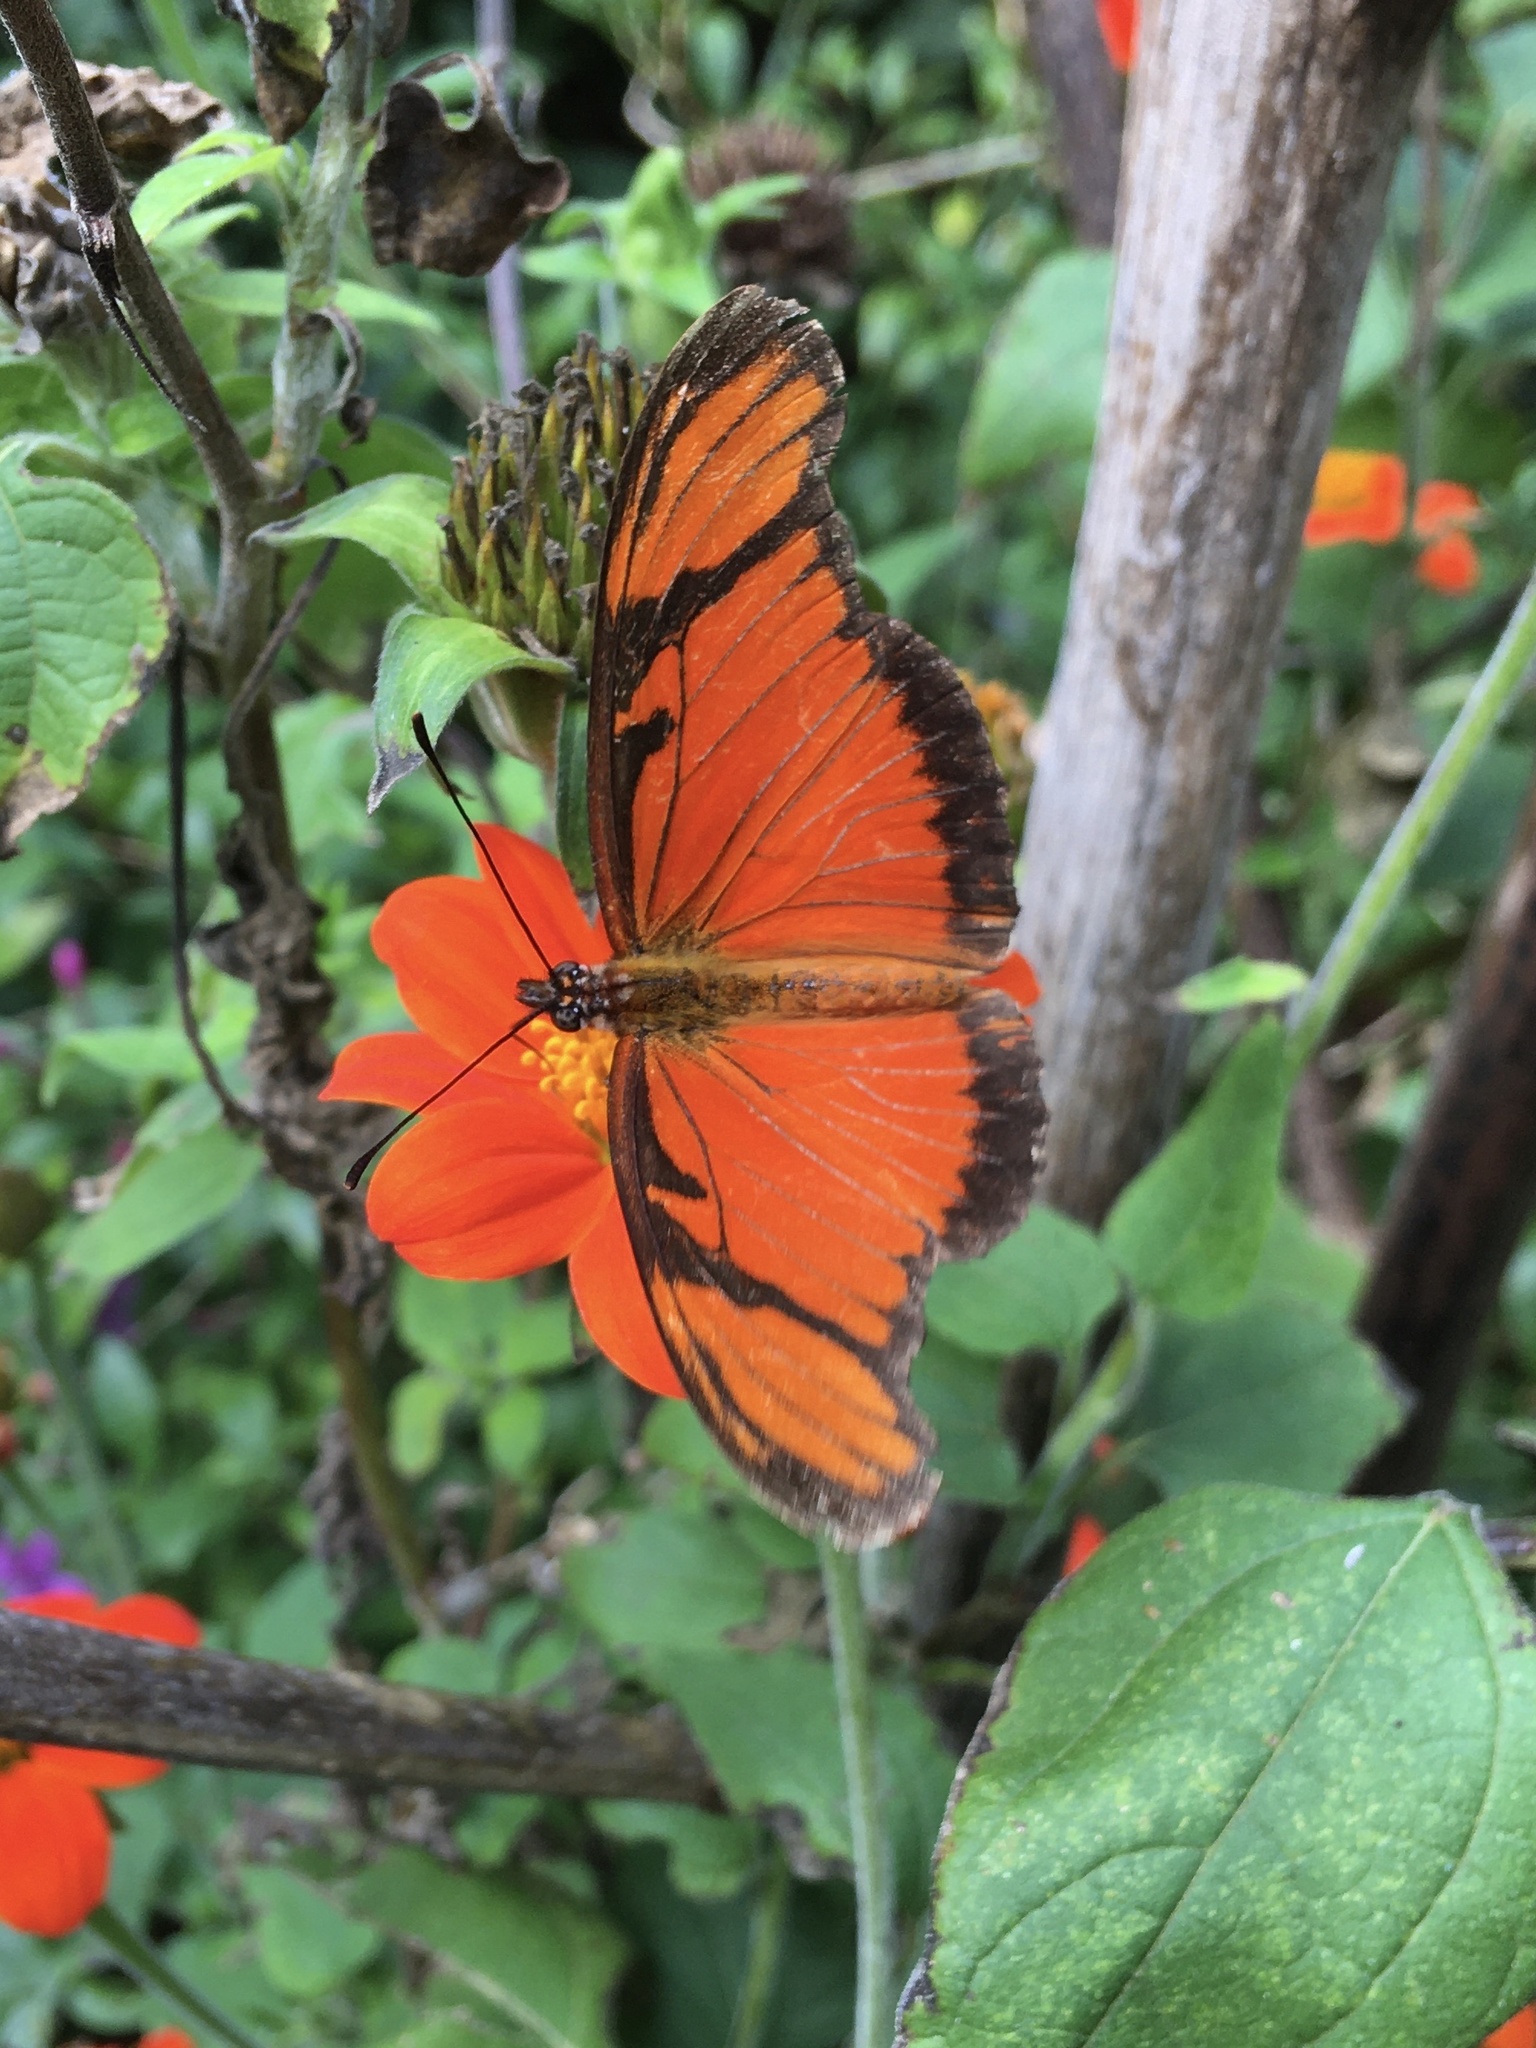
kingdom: Animalia
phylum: Arthropoda
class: Insecta
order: Lepidoptera
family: Nymphalidae
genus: Dione
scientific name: Dione juno
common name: Juno silverspot
